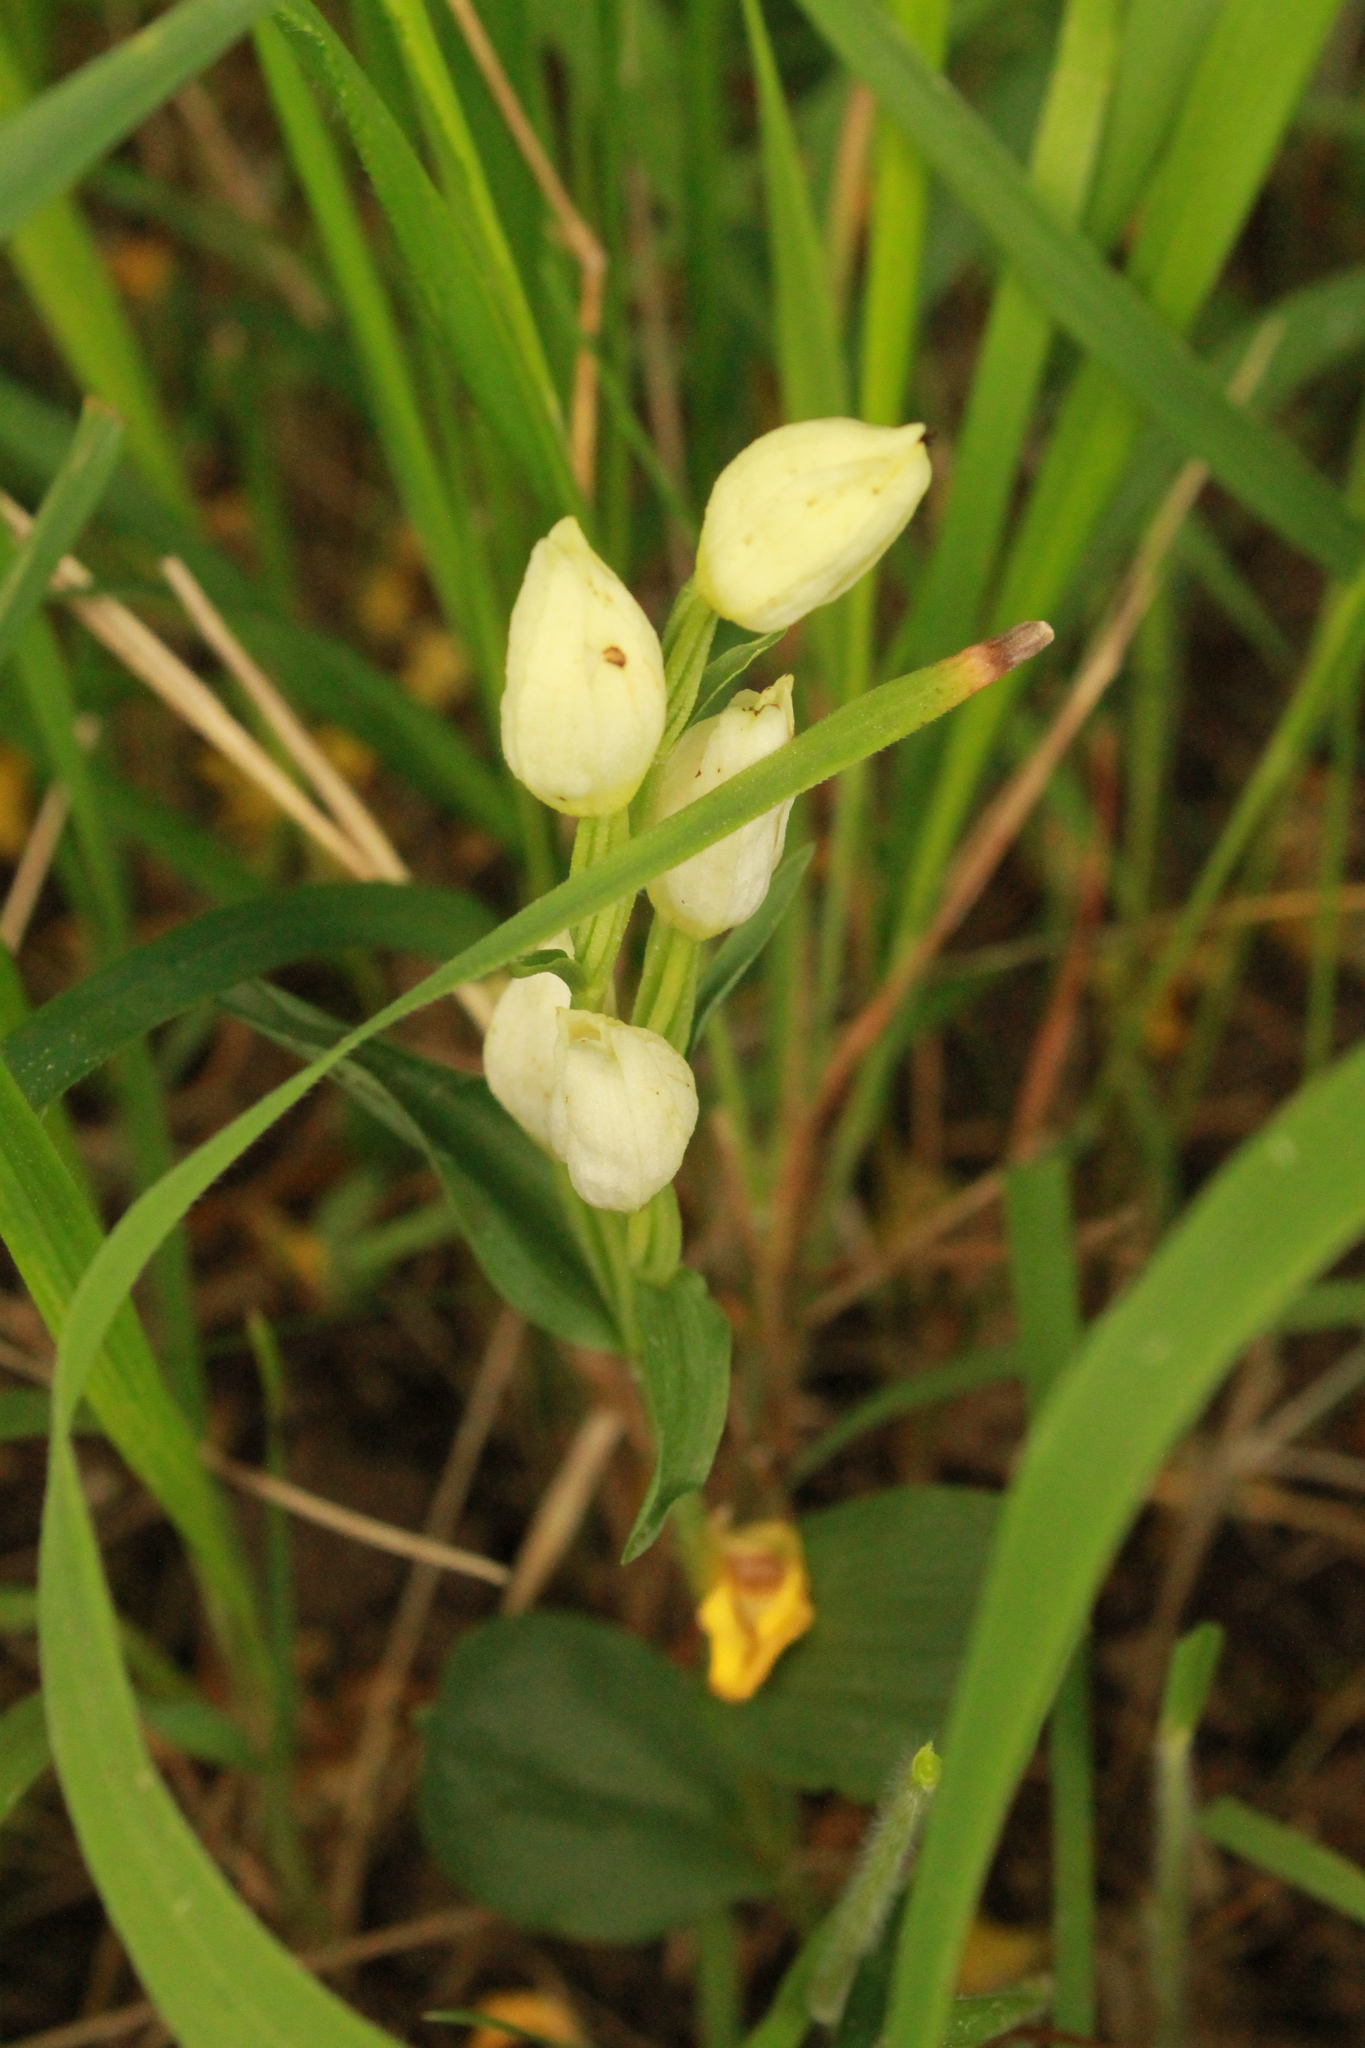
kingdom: Plantae
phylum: Tracheophyta
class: Liliopsida
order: Asparagales
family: Orchidaceae
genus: Cephalanthera
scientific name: Cephalanthera damasonium
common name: White helleborine
